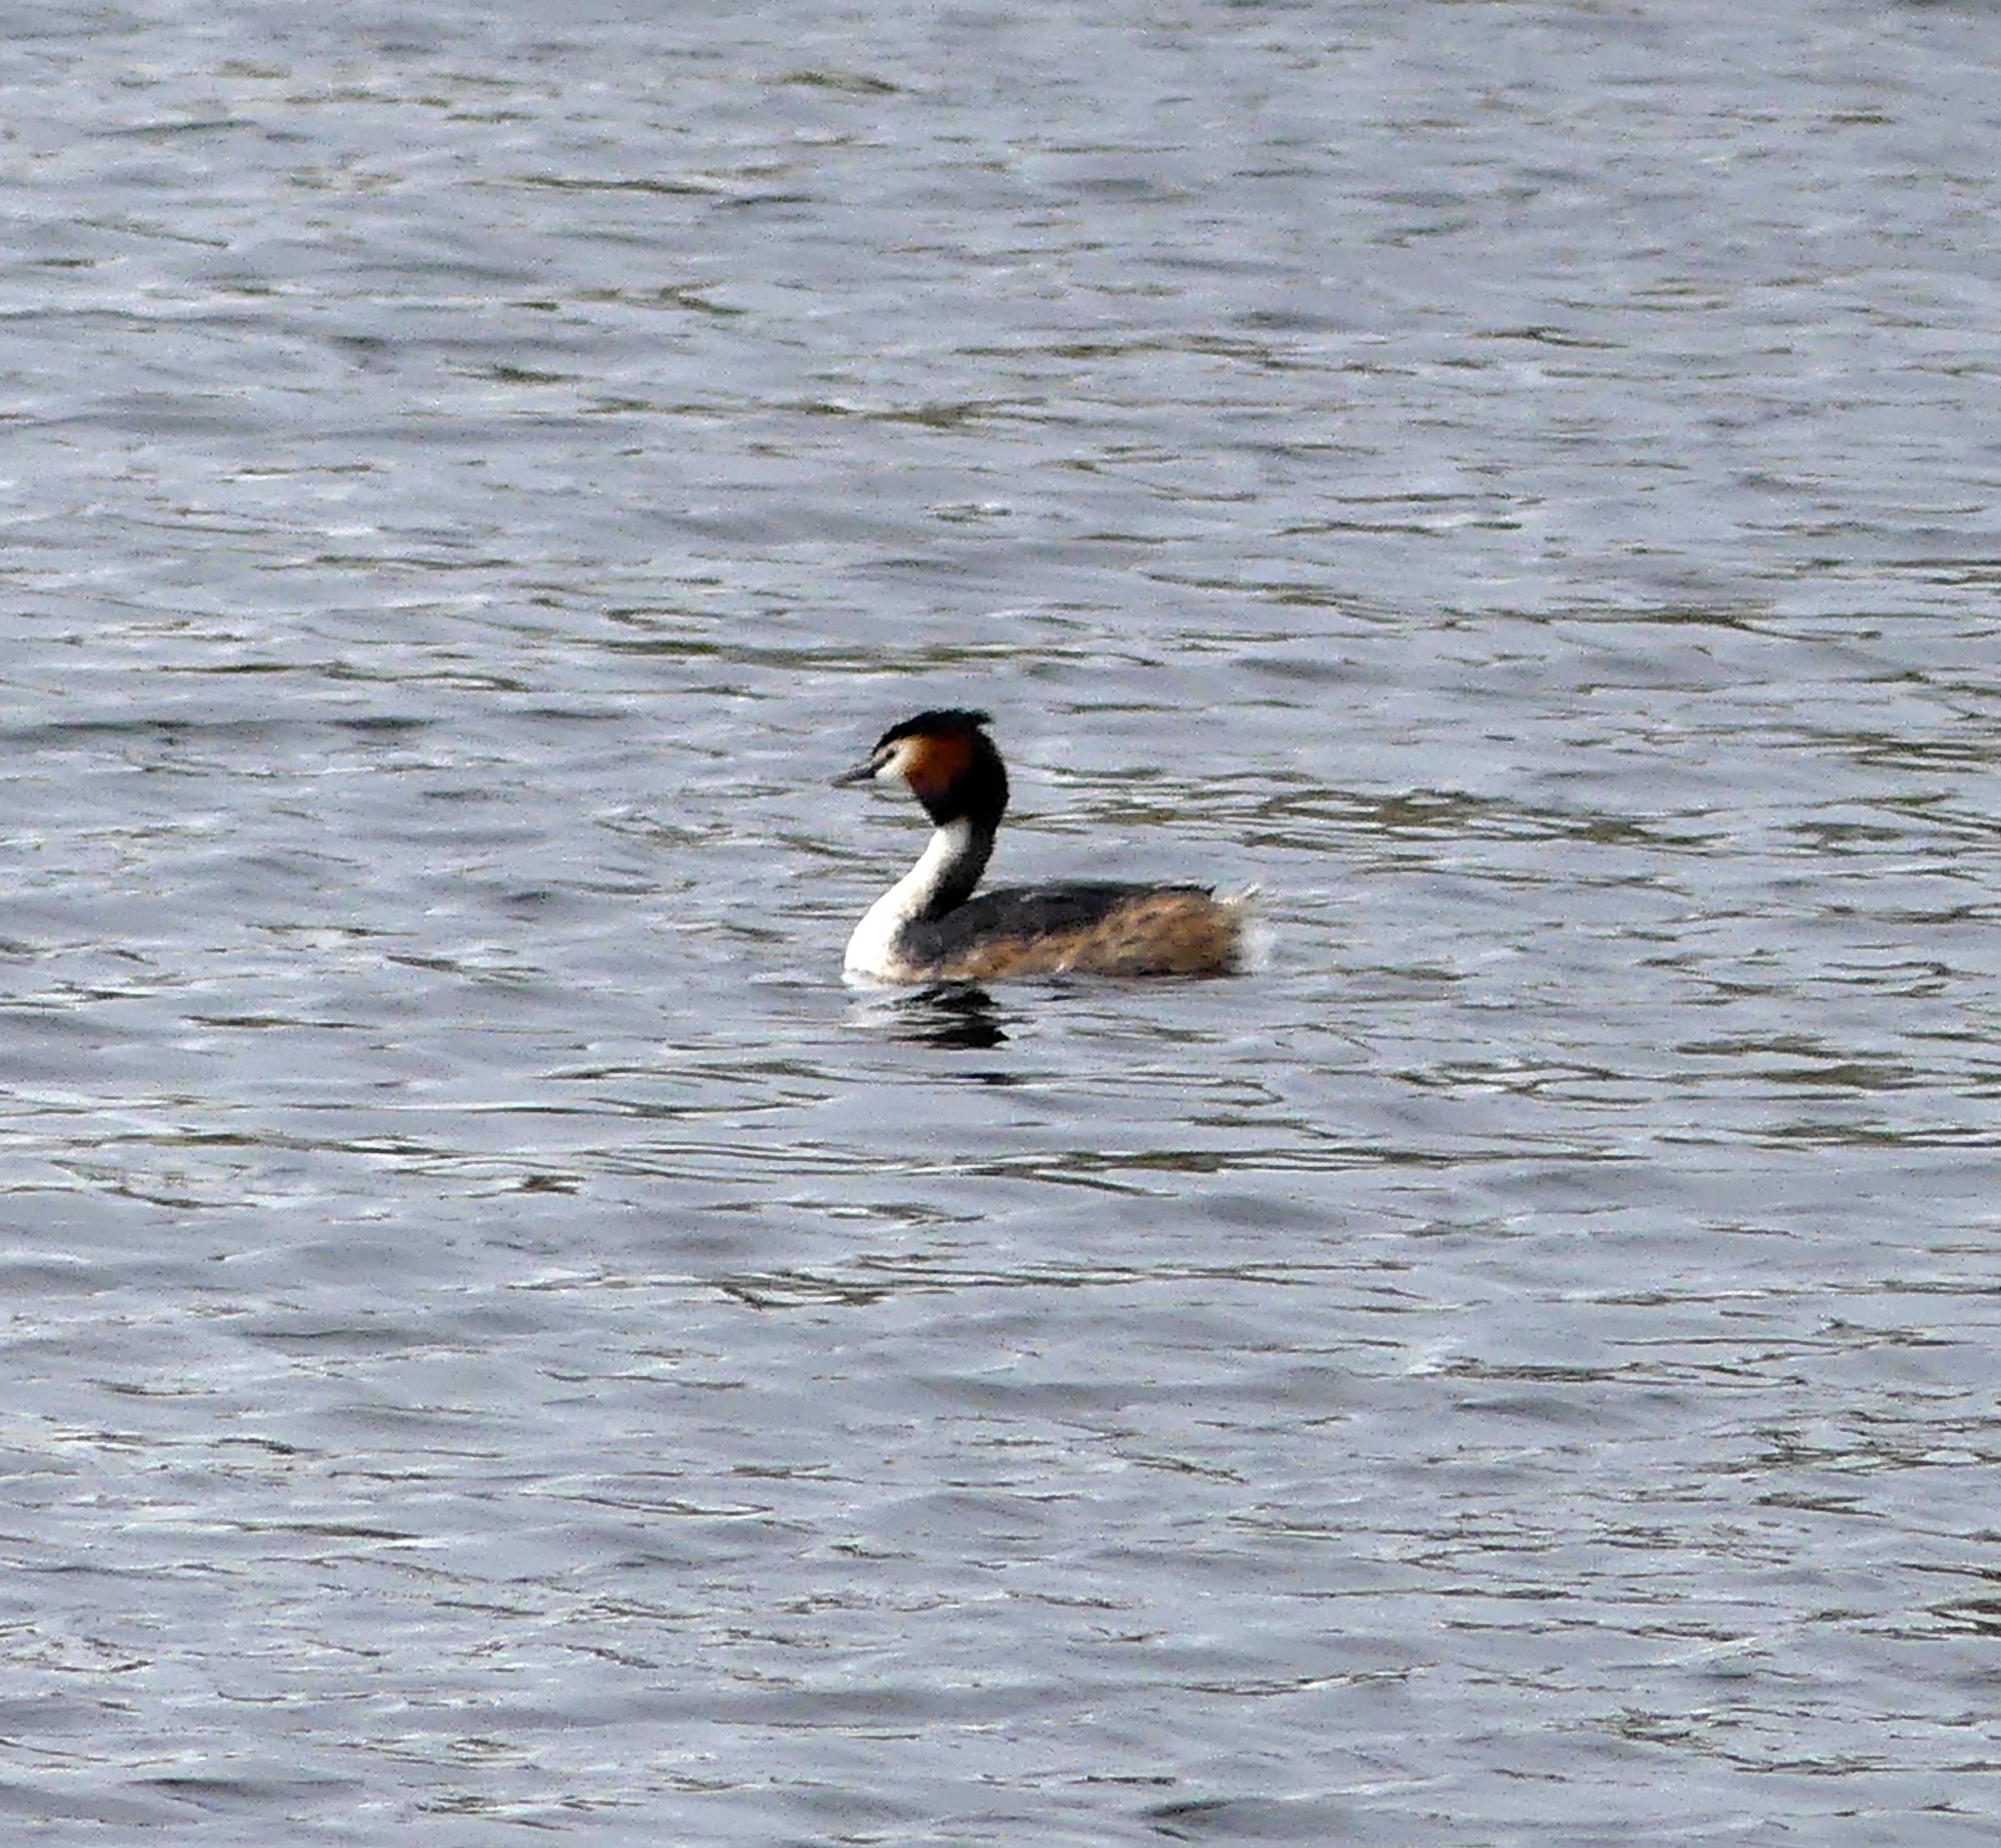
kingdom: Animalia
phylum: Chordata
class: Aves
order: Podicipediformes
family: Podicipedidae
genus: Podiceps
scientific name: Podiceps cristatus
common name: Great crested grebe
